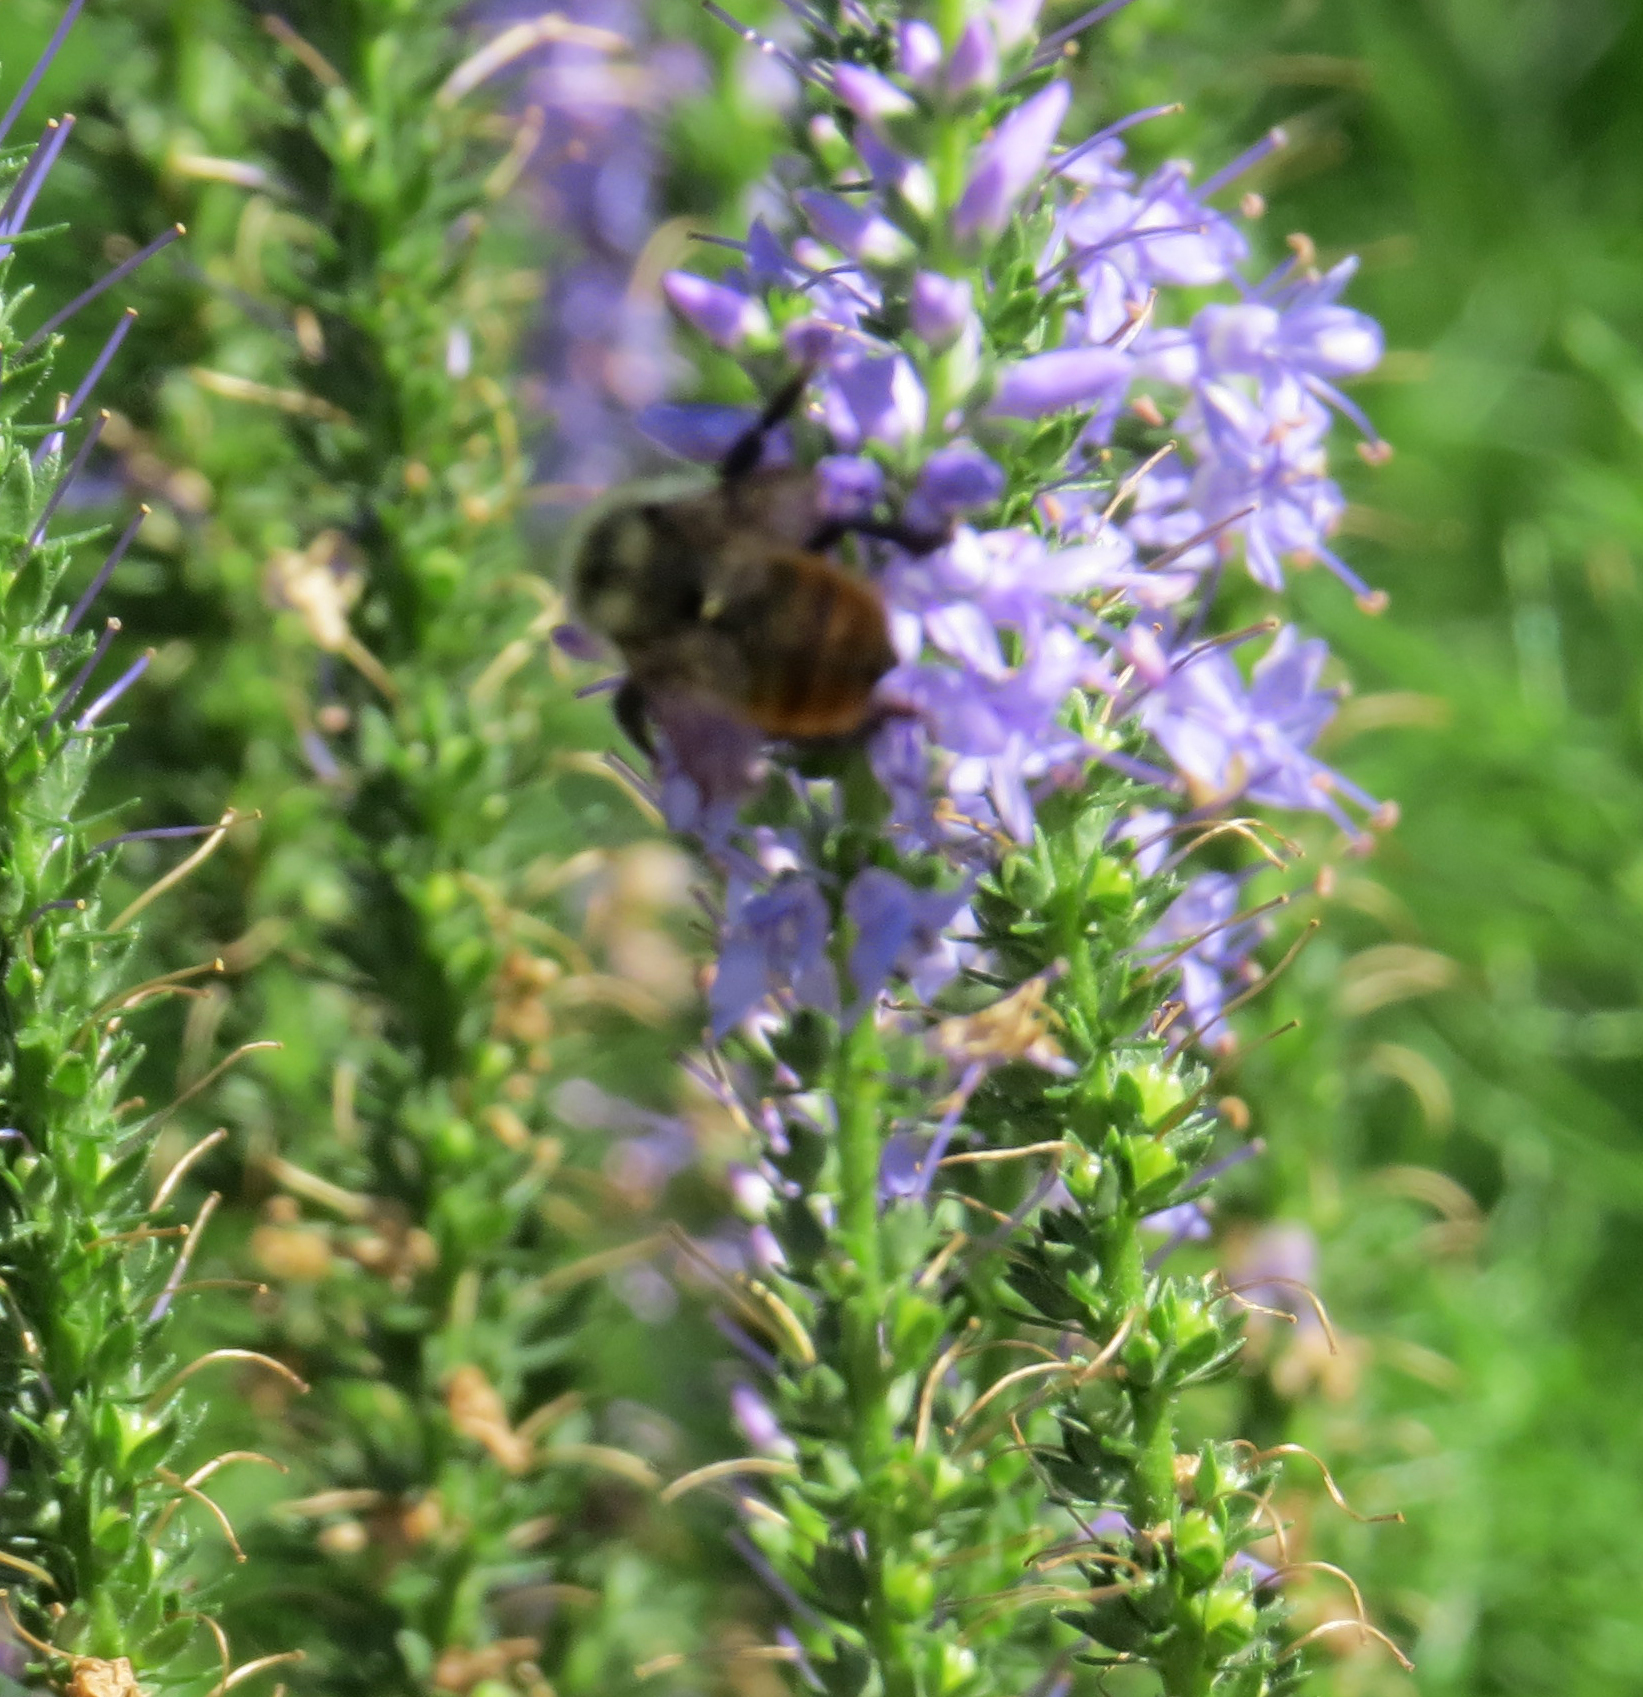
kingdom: Animalia
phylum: Arthropoda
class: Insecta
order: Hymenoptera
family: Apidae
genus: Bombus
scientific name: Bombus rufocinctus
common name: Red-belted bumble bee
